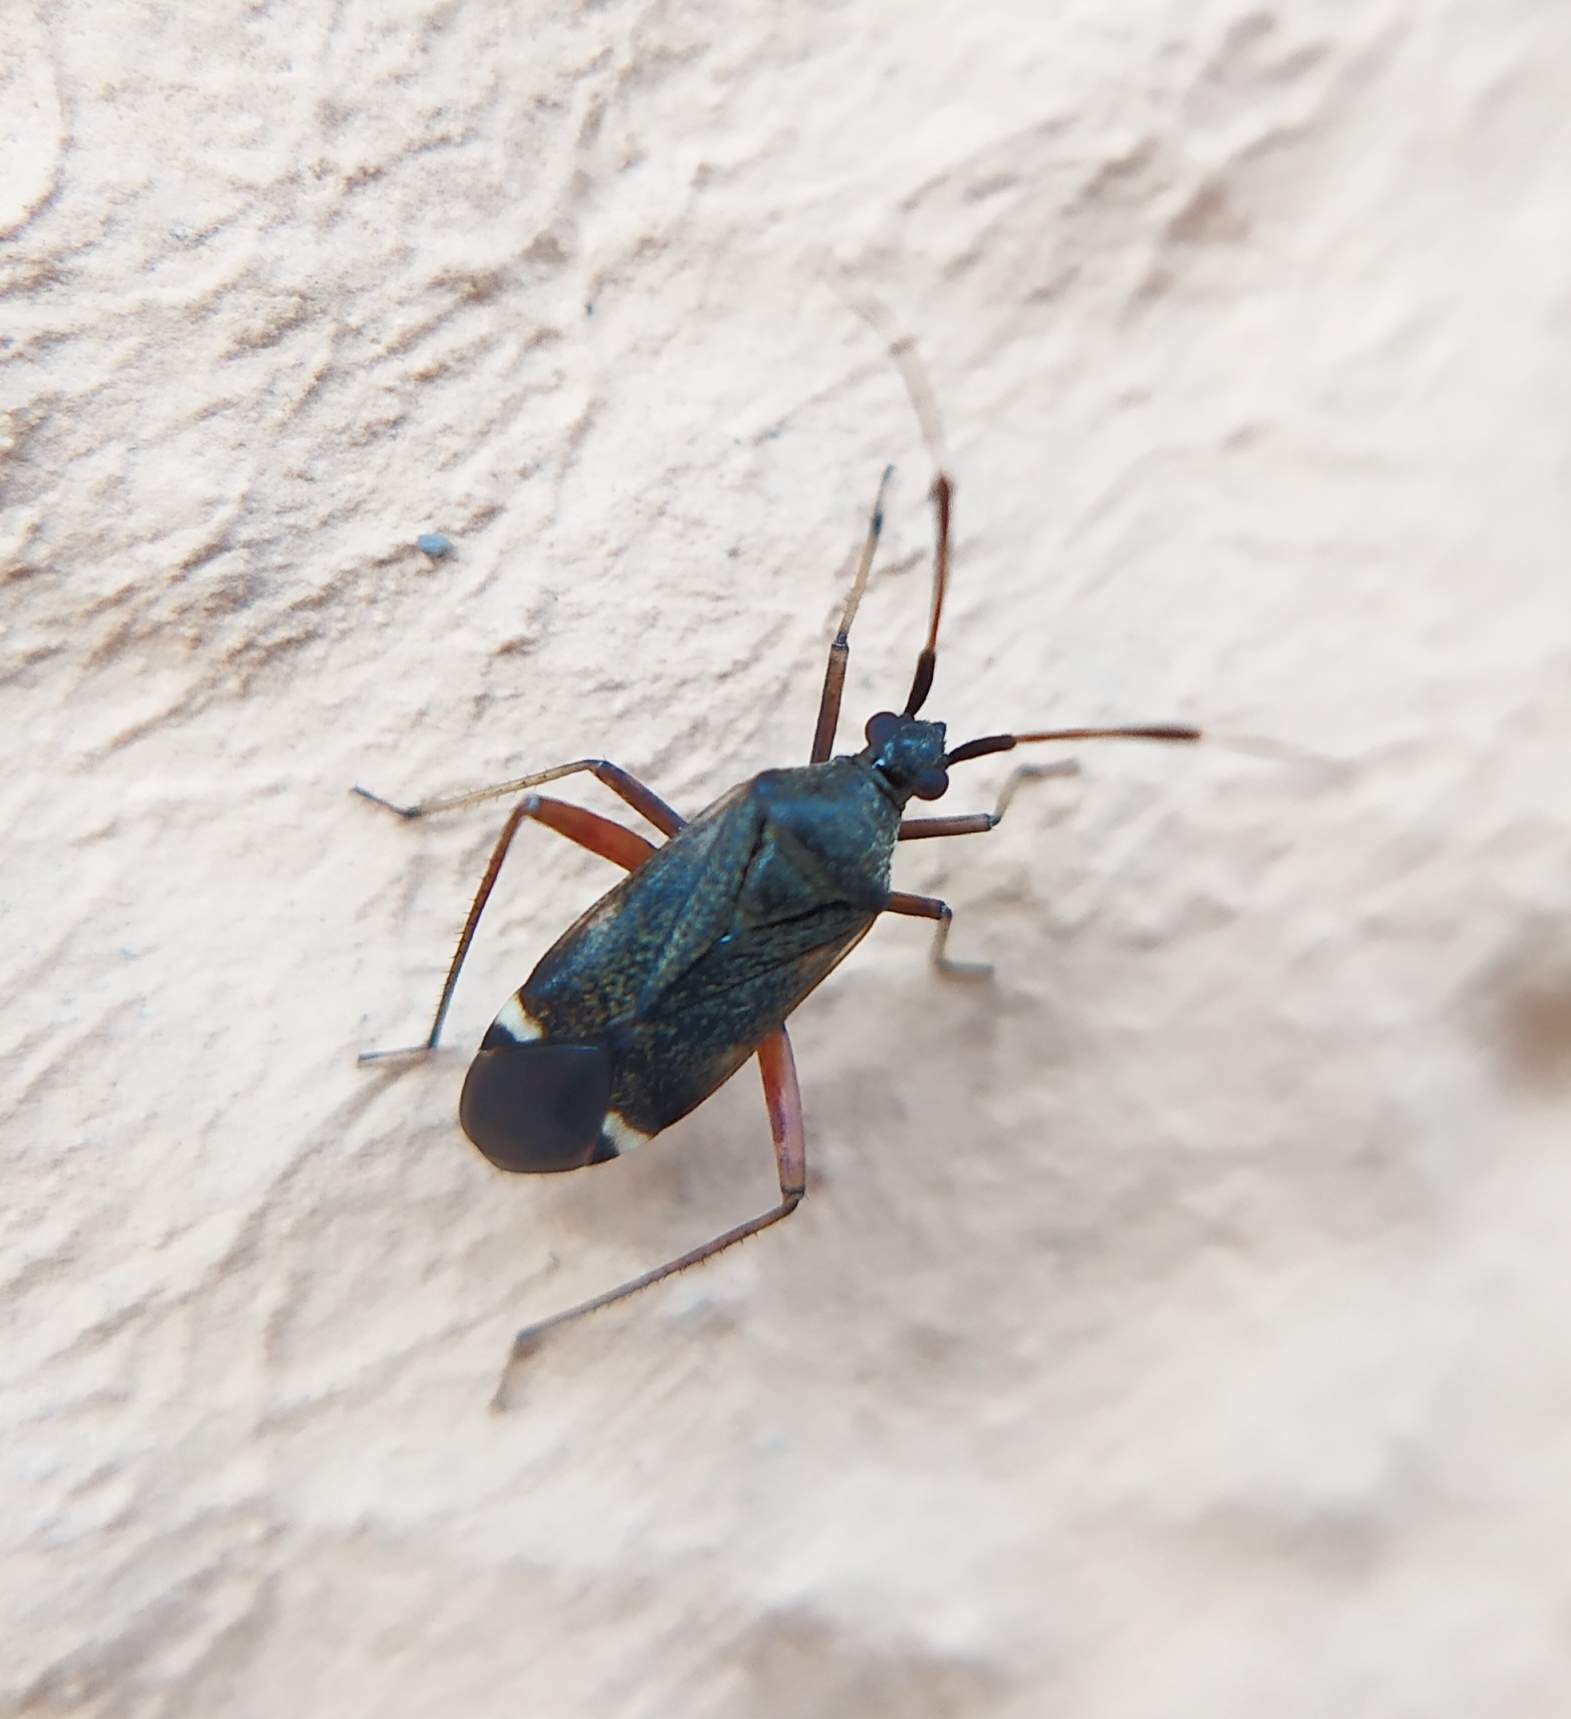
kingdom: Animalia
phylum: Arthropoda
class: Insecta
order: Hemiptera
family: Miridae
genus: Closterotomus
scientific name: Closterotomus biclavatus
